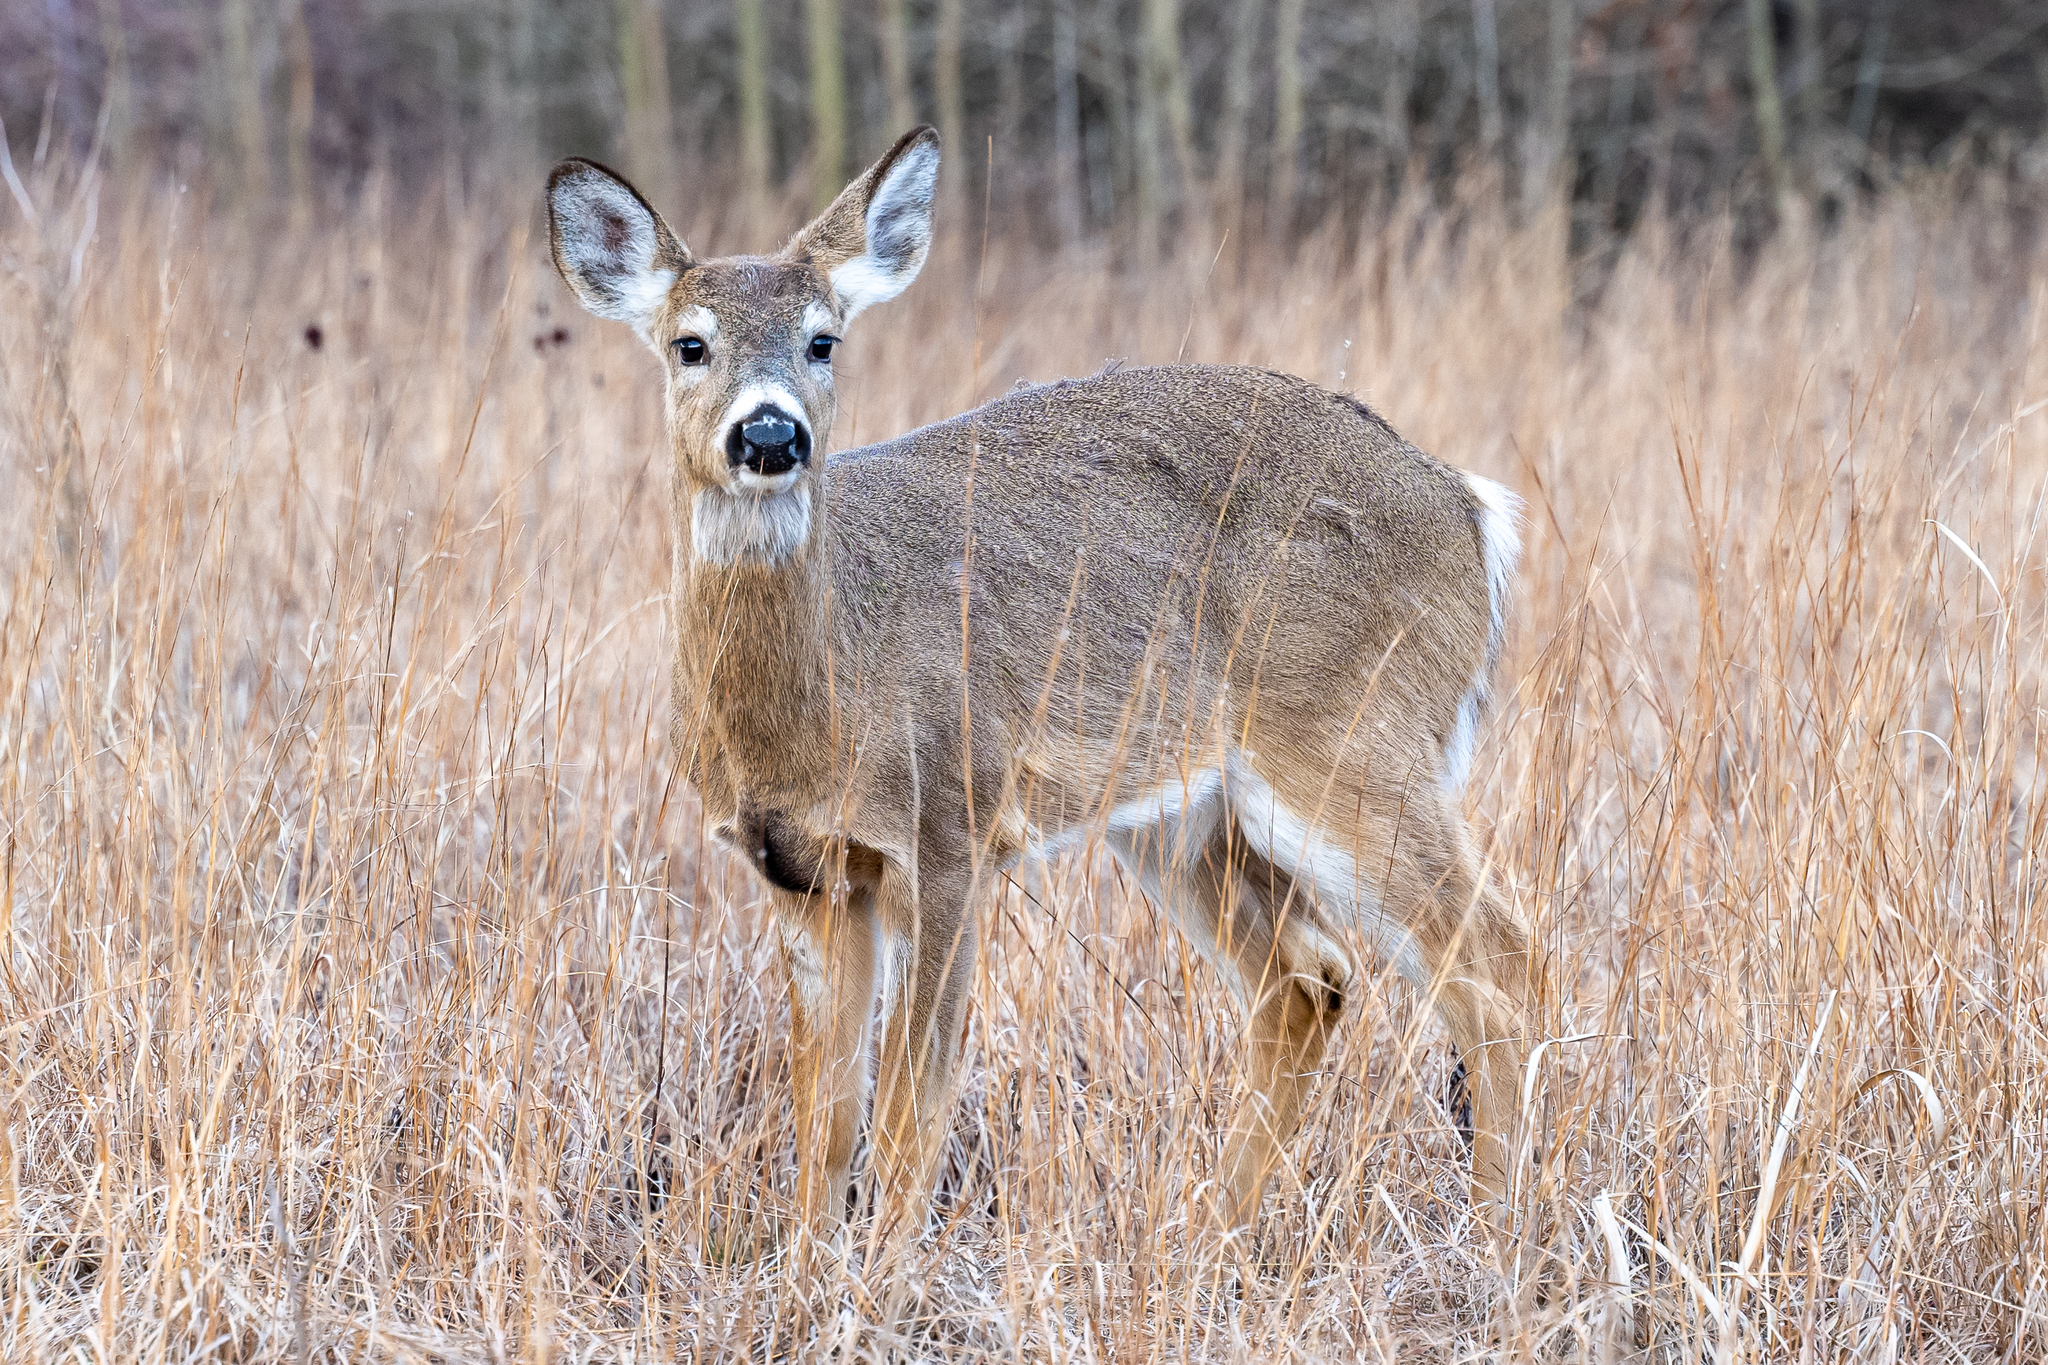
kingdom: Animalia
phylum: Chordata
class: Mammalia
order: Artiodactyla
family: Cervidae
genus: Odocoileus
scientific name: Odocoileus virginianus
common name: White-tailed deer
